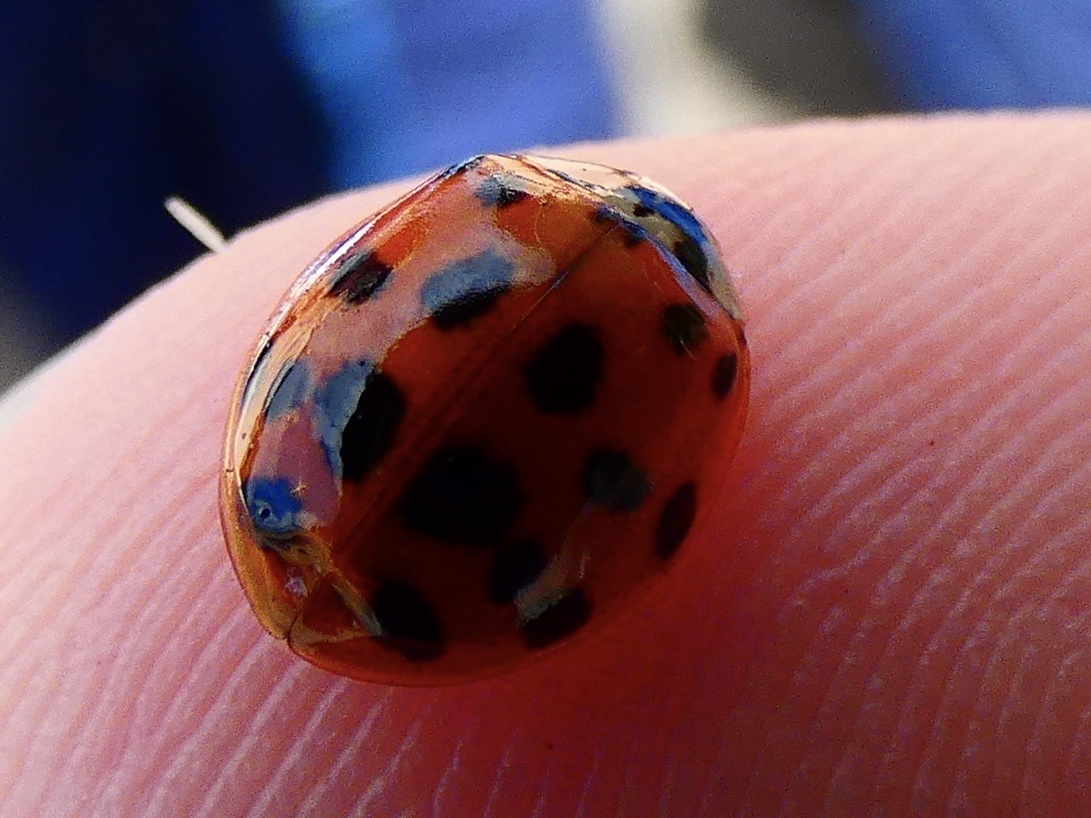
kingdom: Animalia
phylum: Arthropoda
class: Insecta
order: Coleoptera
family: Coccinellidae
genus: Harmonia
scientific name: Harmonia axyridis
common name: Harlequin ladybird
